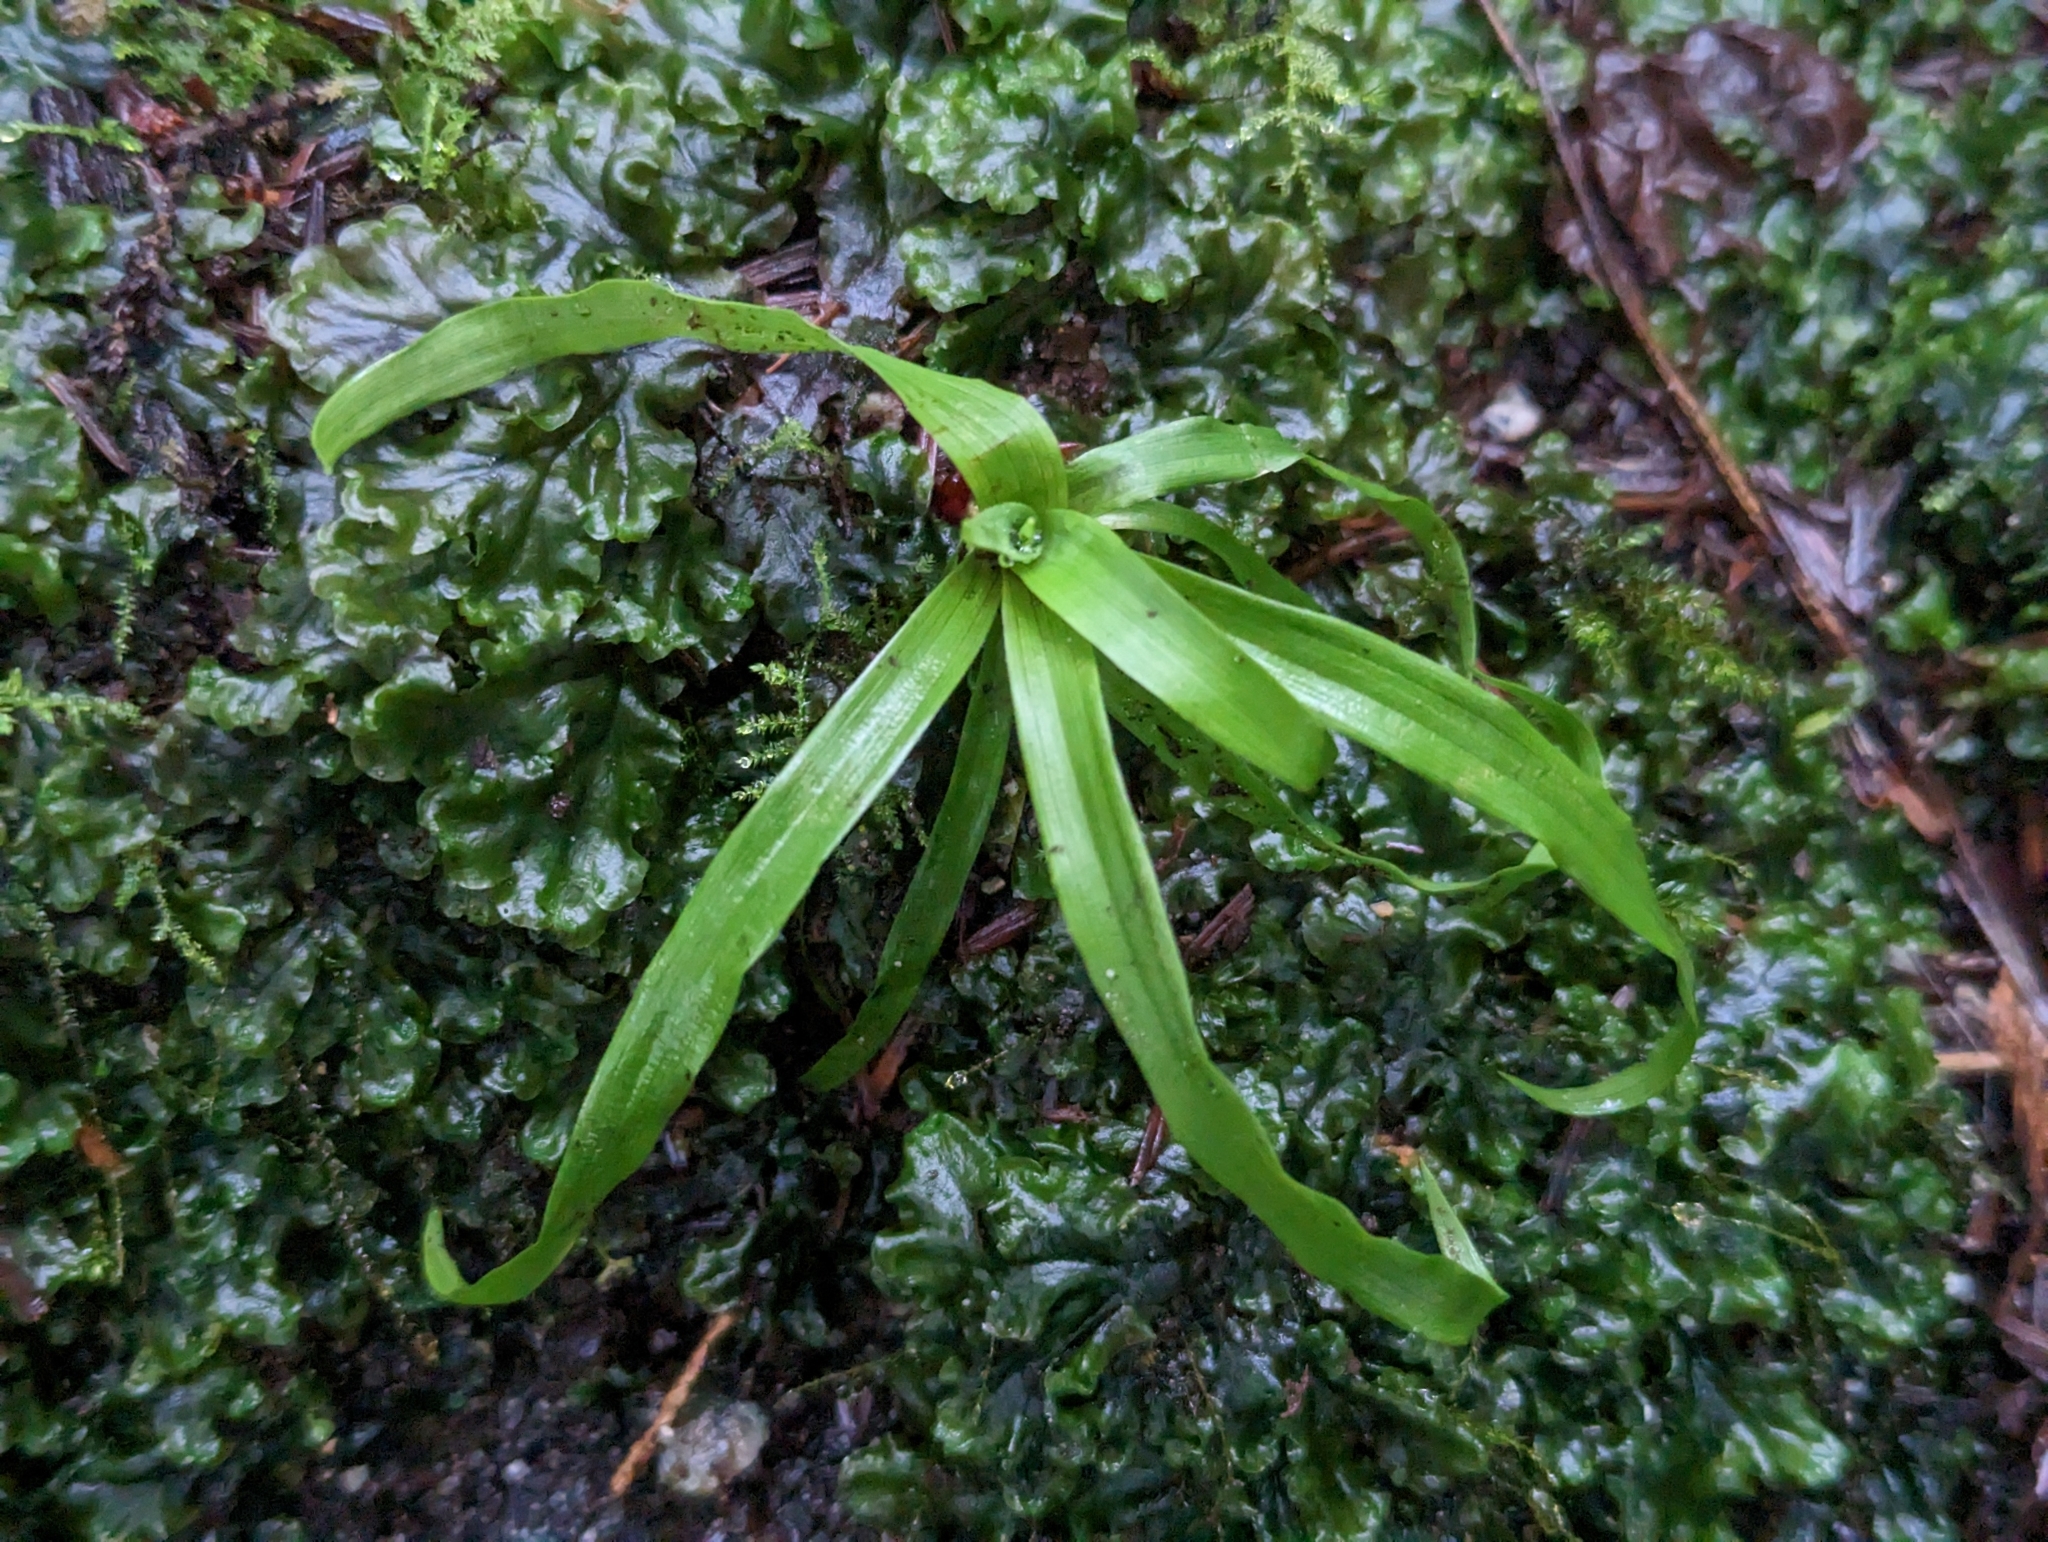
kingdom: Plantae
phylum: Tracheophyta
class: Liliopsida
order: Poales
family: Juncaceae
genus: Luzula
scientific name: Luzula parviflora
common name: Millet woodrush
